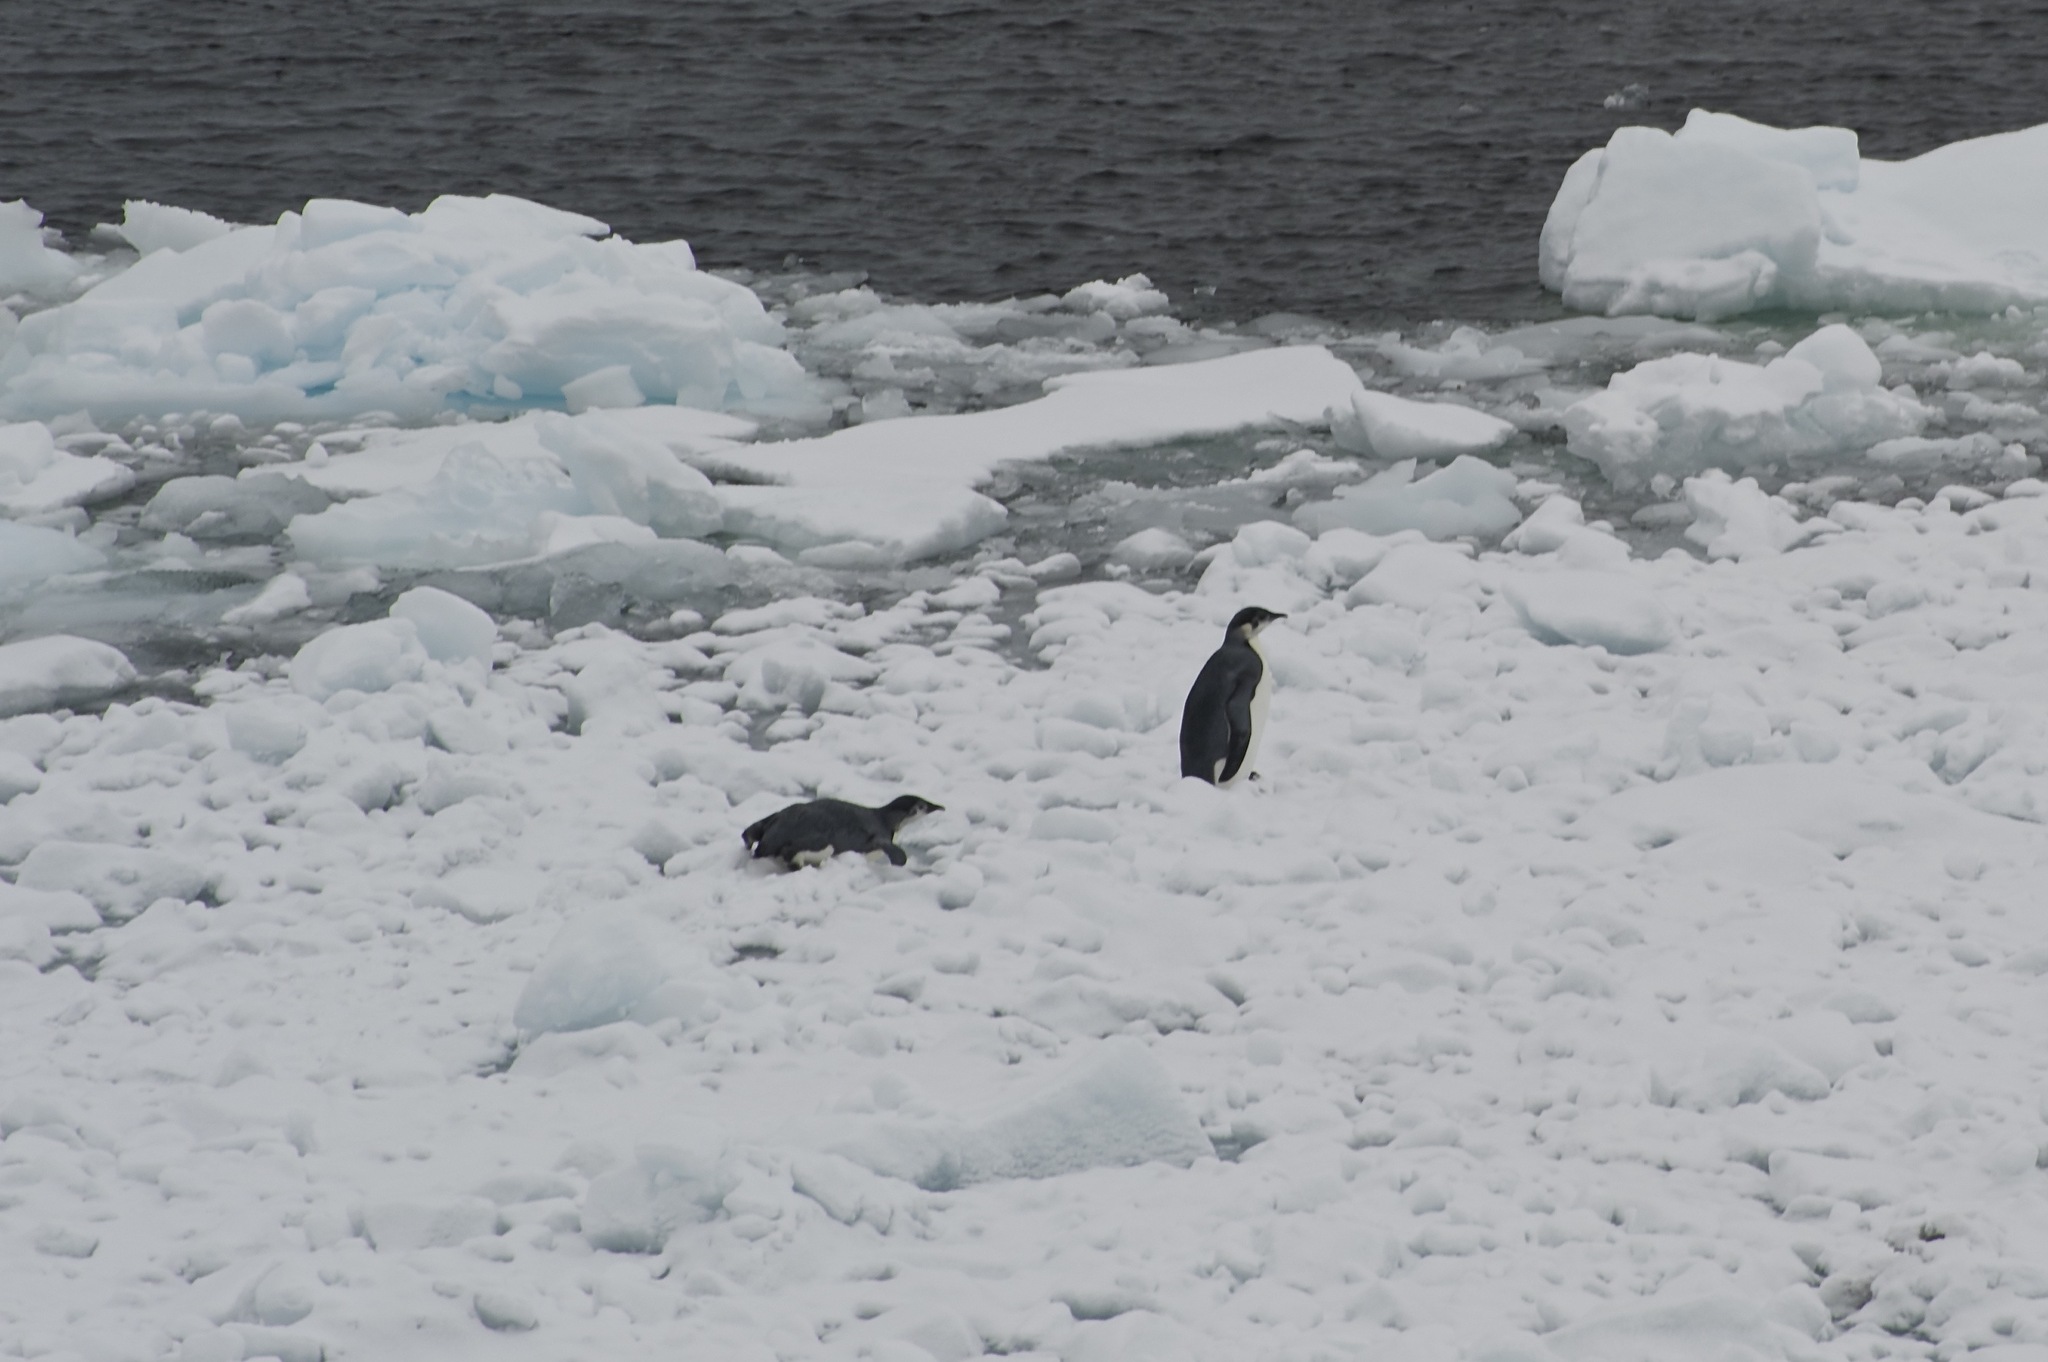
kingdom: Animalia
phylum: Chordata
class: Aves
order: Sphenisciformes
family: Spheniscidae
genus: Aptenodytes
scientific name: Aptenodytes forsteri
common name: Emperor penguin
